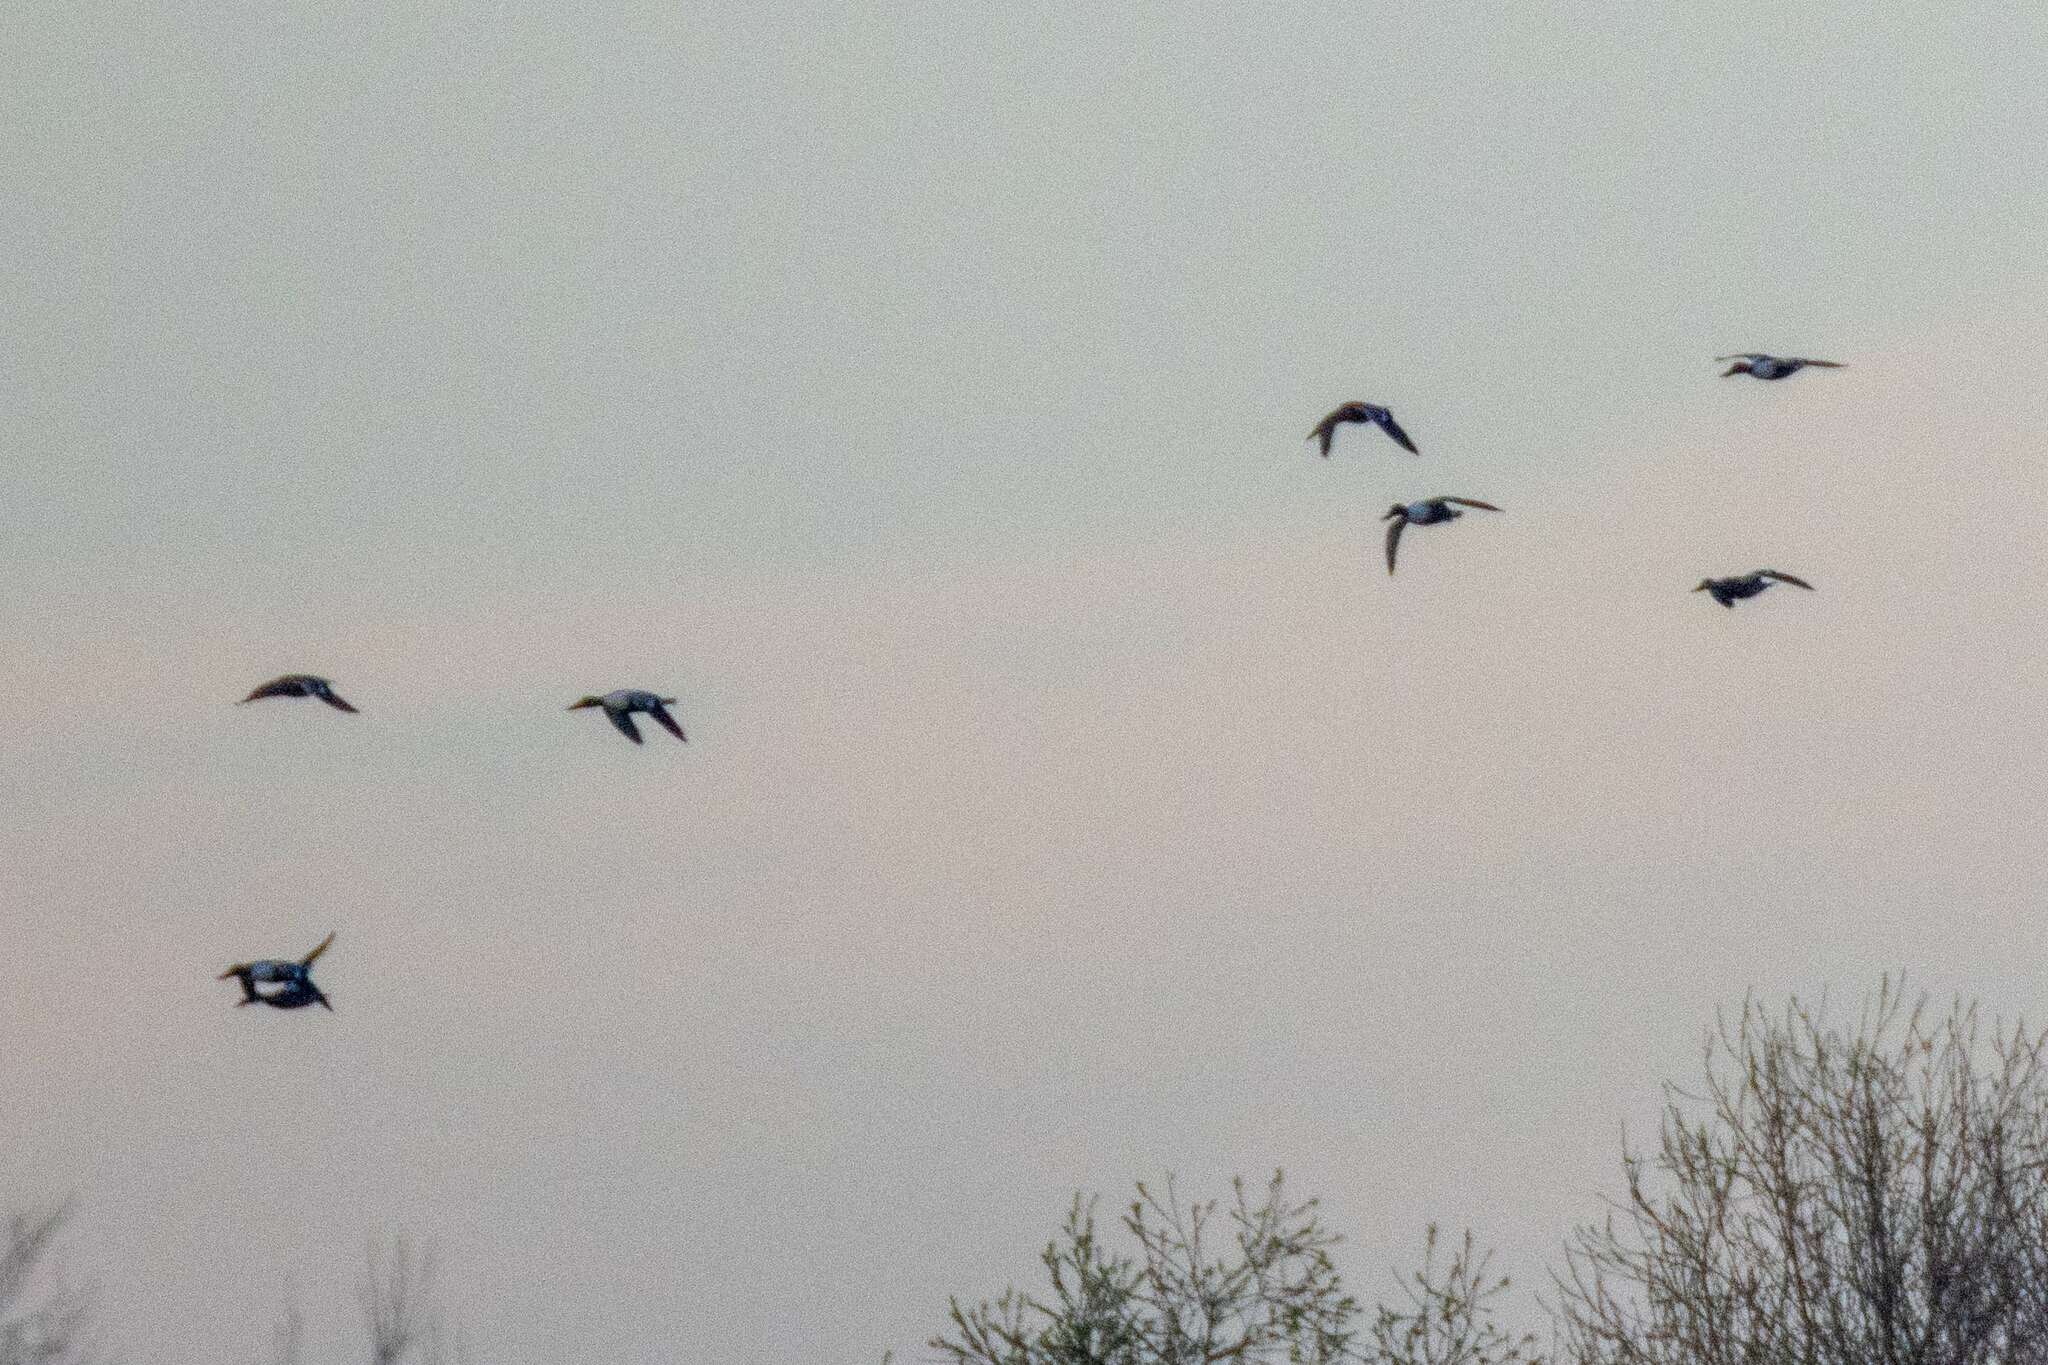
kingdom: Animalia
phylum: Chordata
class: Aves
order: Anseriformes
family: Anatidae
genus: Spatula
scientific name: Spatula clypeata
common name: Northern shoveler
